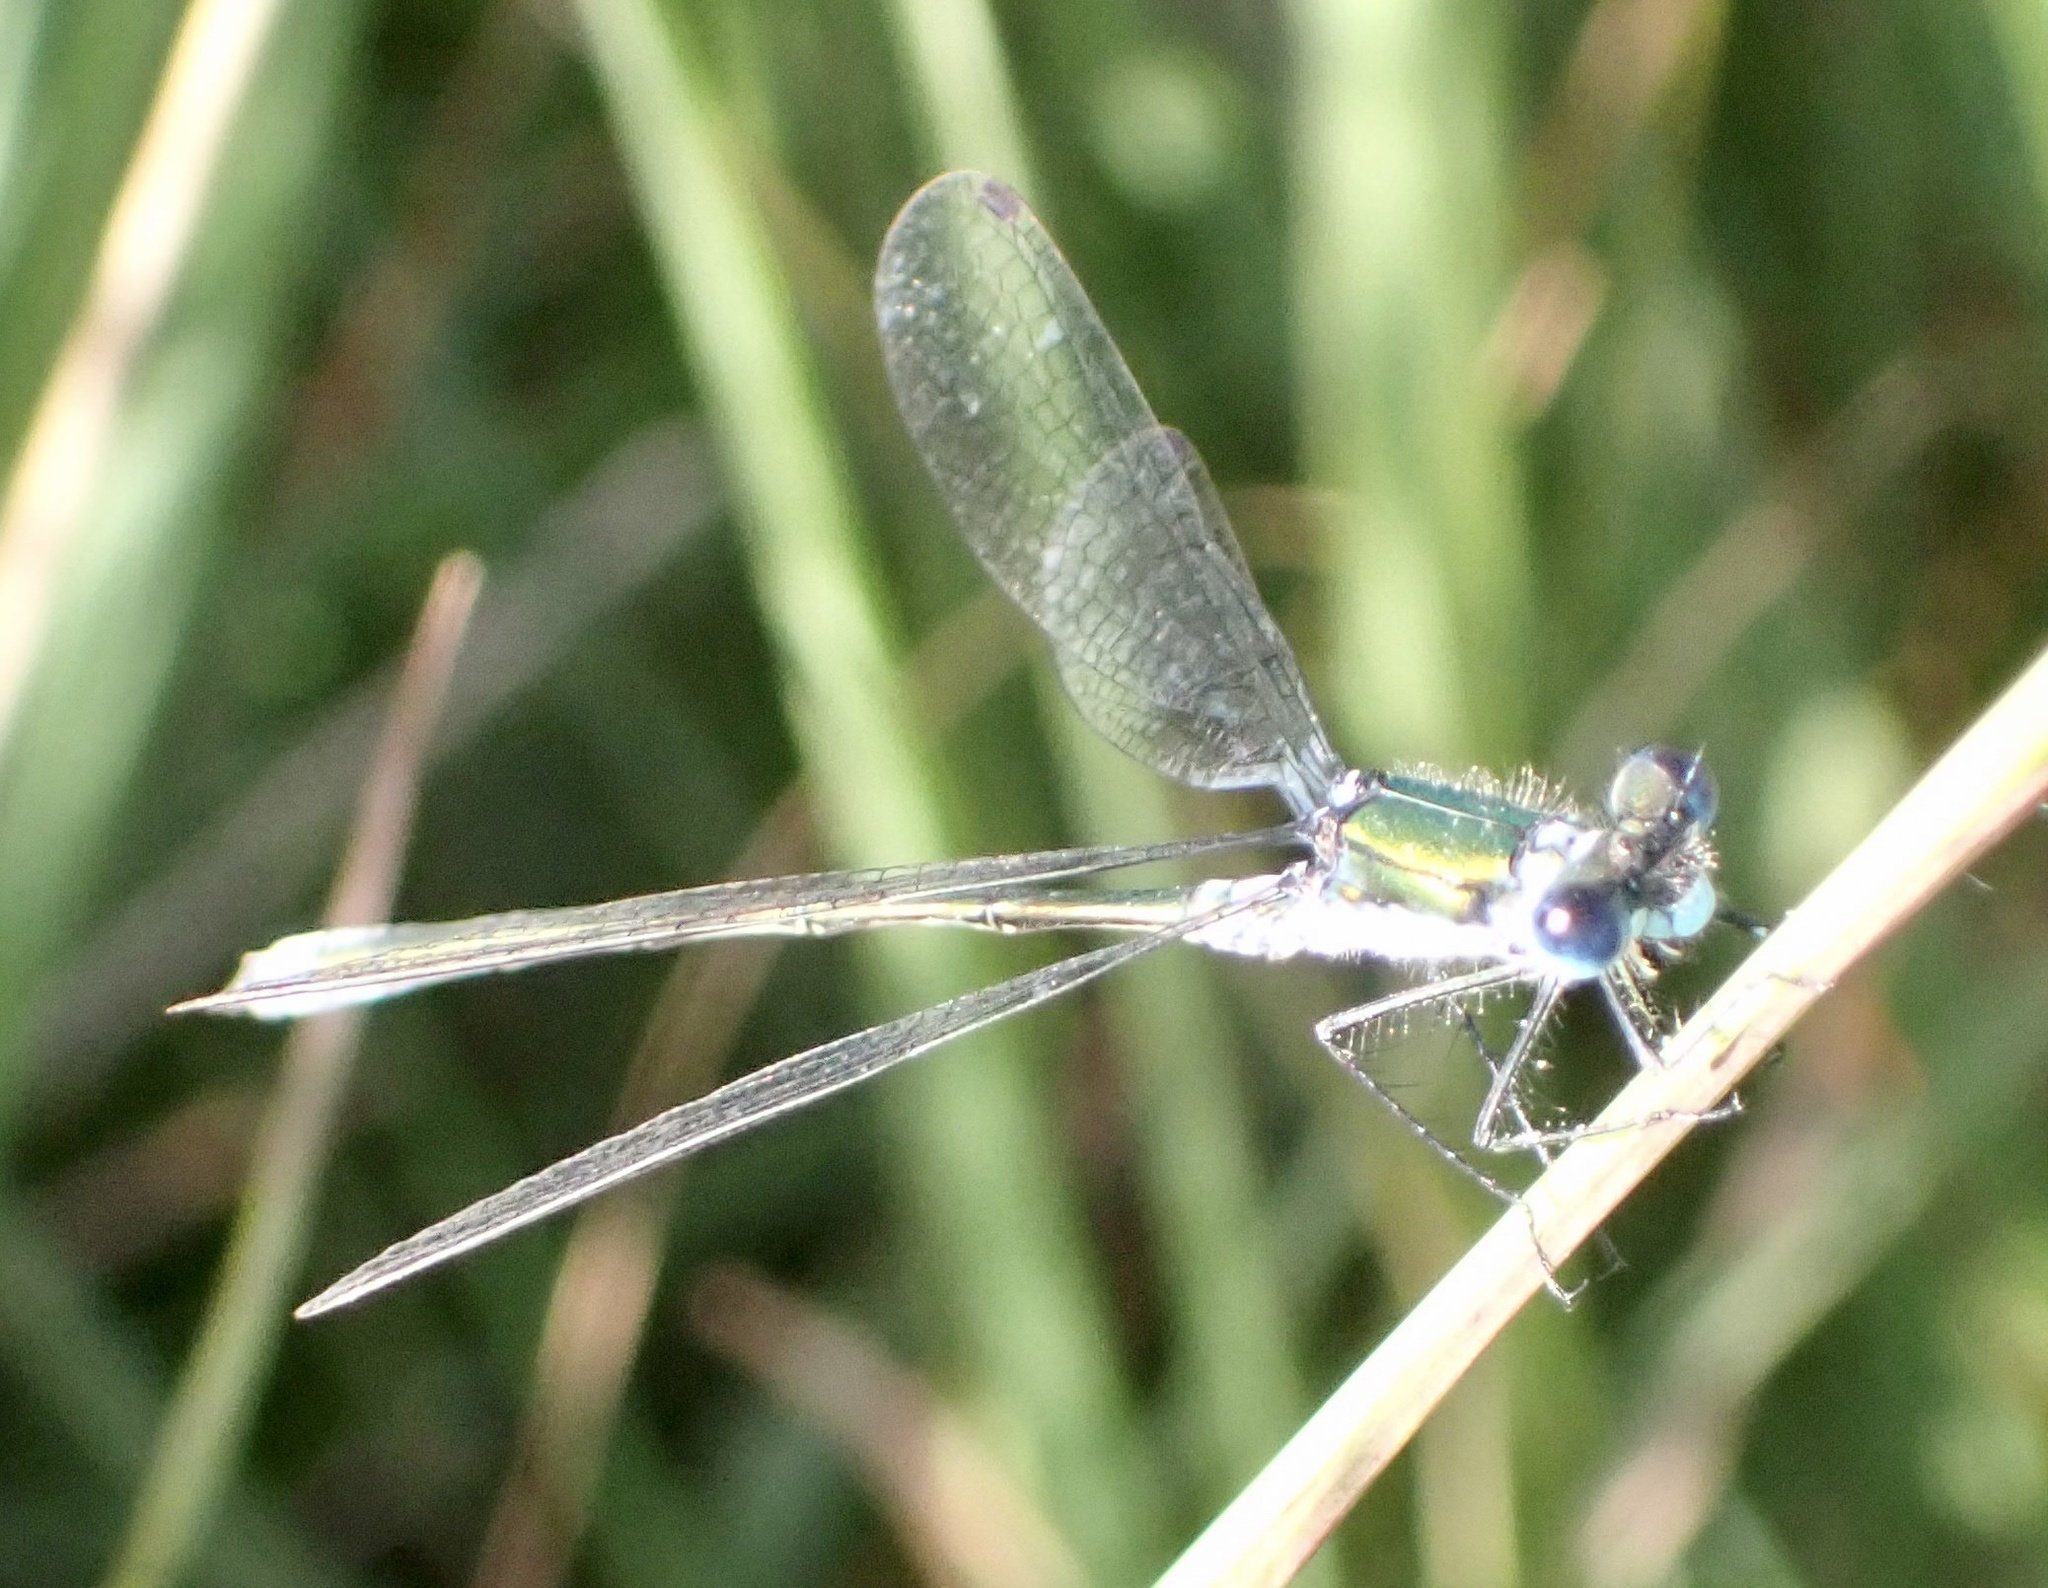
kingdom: Animalia
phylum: Arthropoda
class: Insecta
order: Odonata
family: Lestidae
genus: Lestes
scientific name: Lestes virens
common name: Small emerald spreadwing
